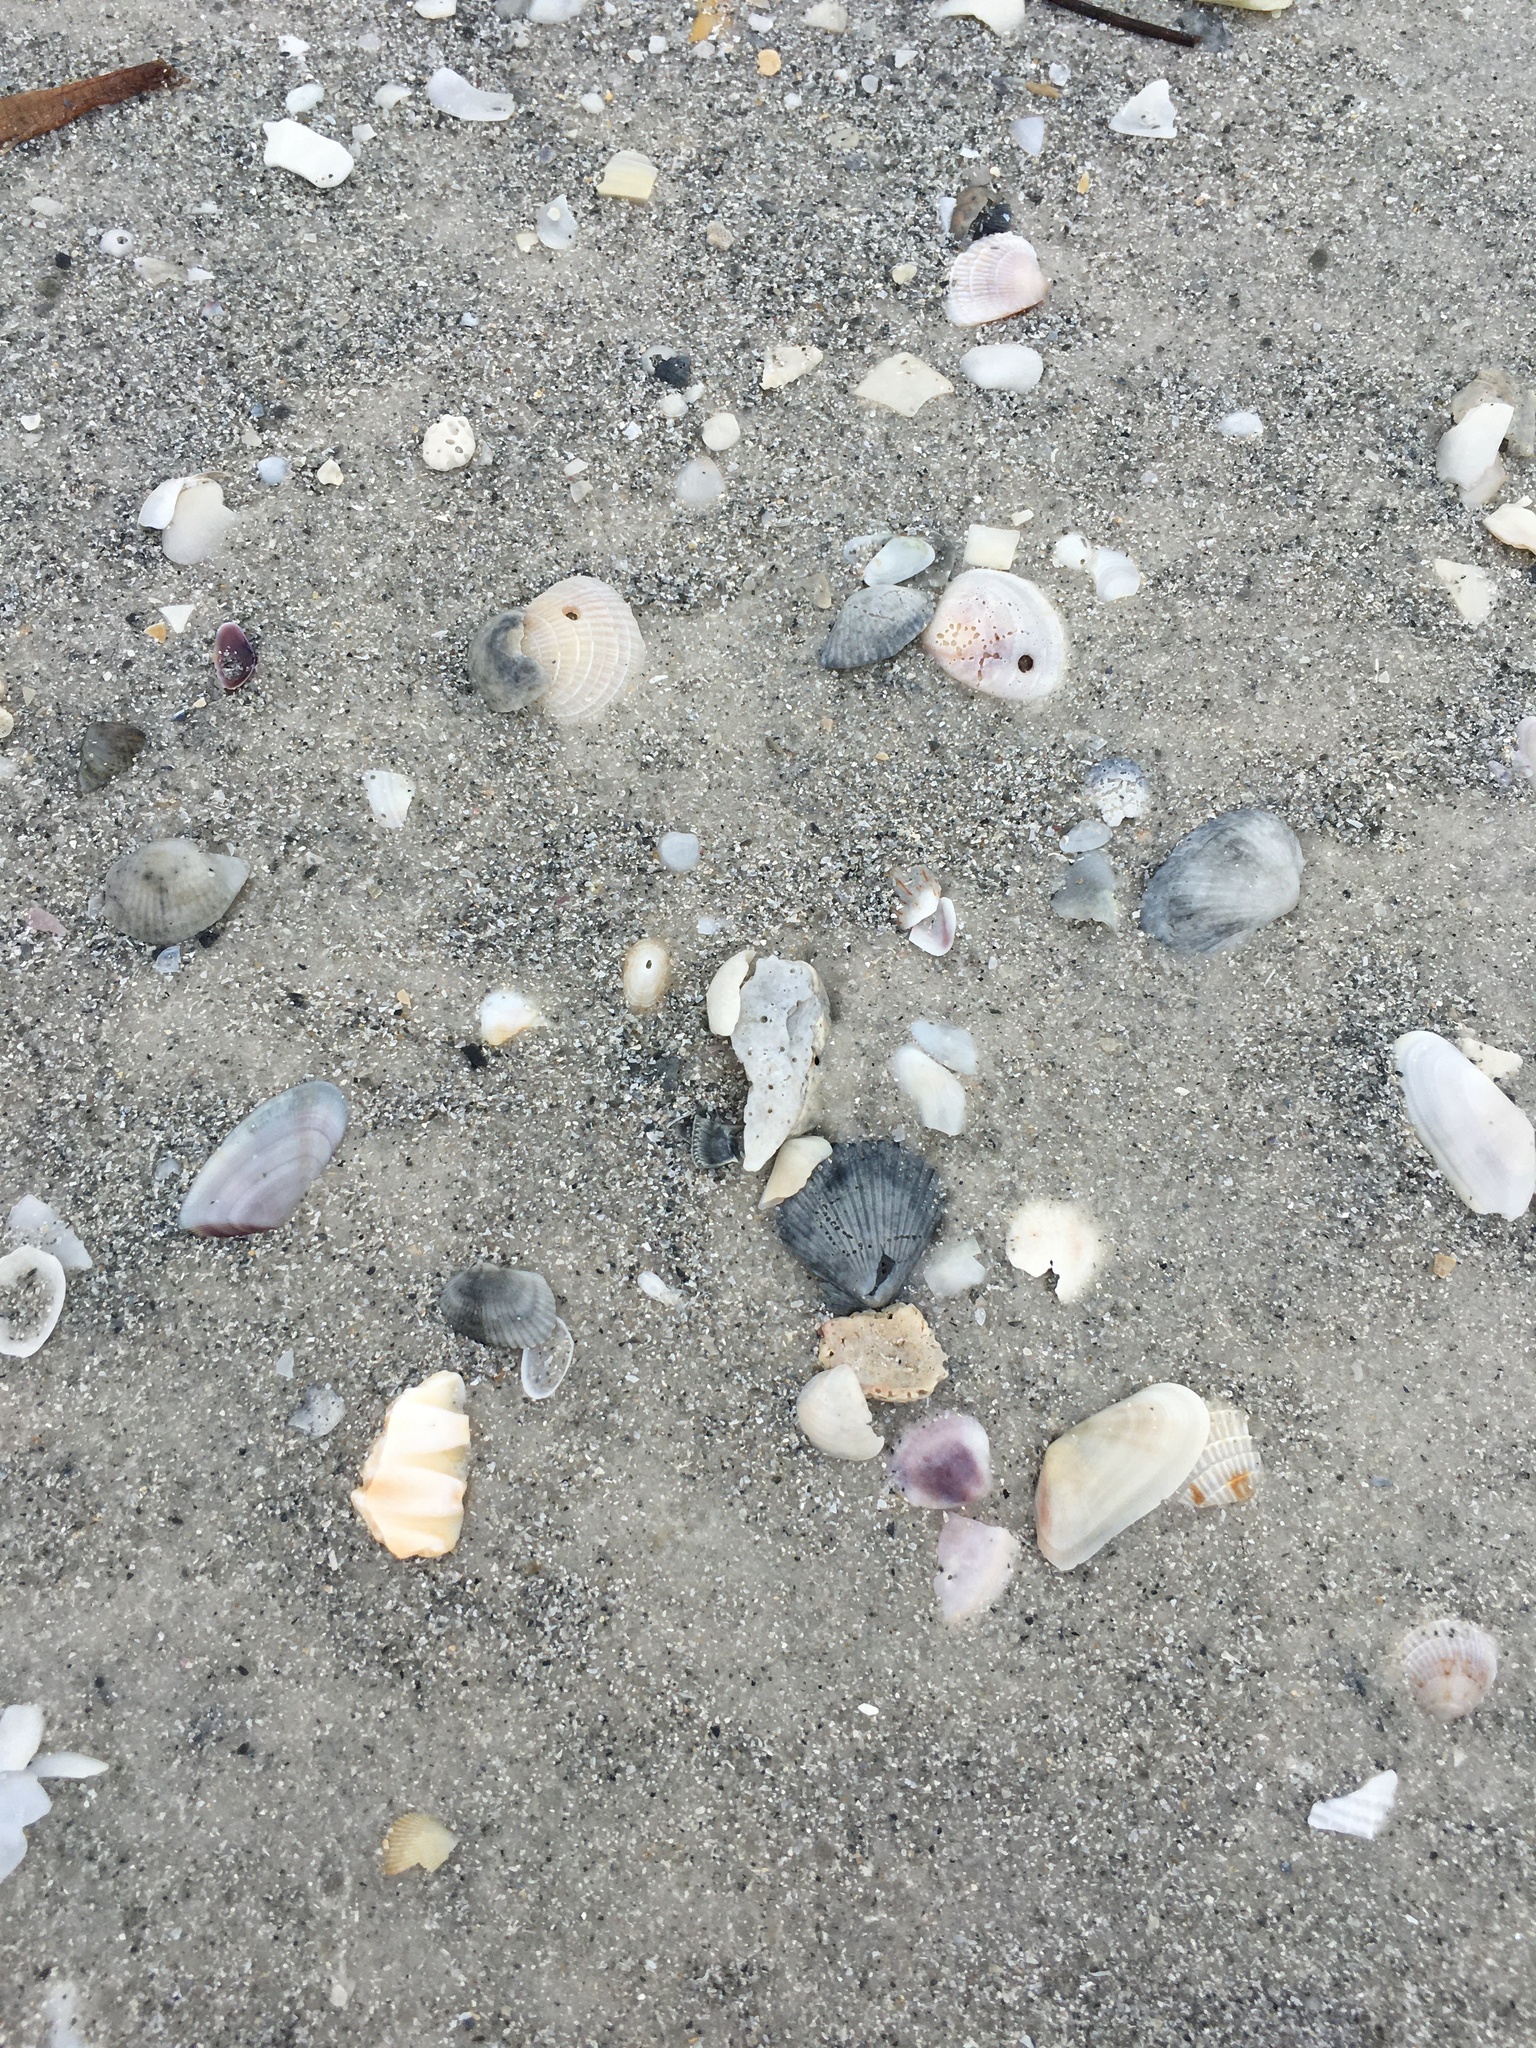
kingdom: Animalia
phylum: Mollusca
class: Bivalvia
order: Pectinida
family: Pectinidae
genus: Argopecten
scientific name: Argopecten irradians
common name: Atlantic bay scallop
